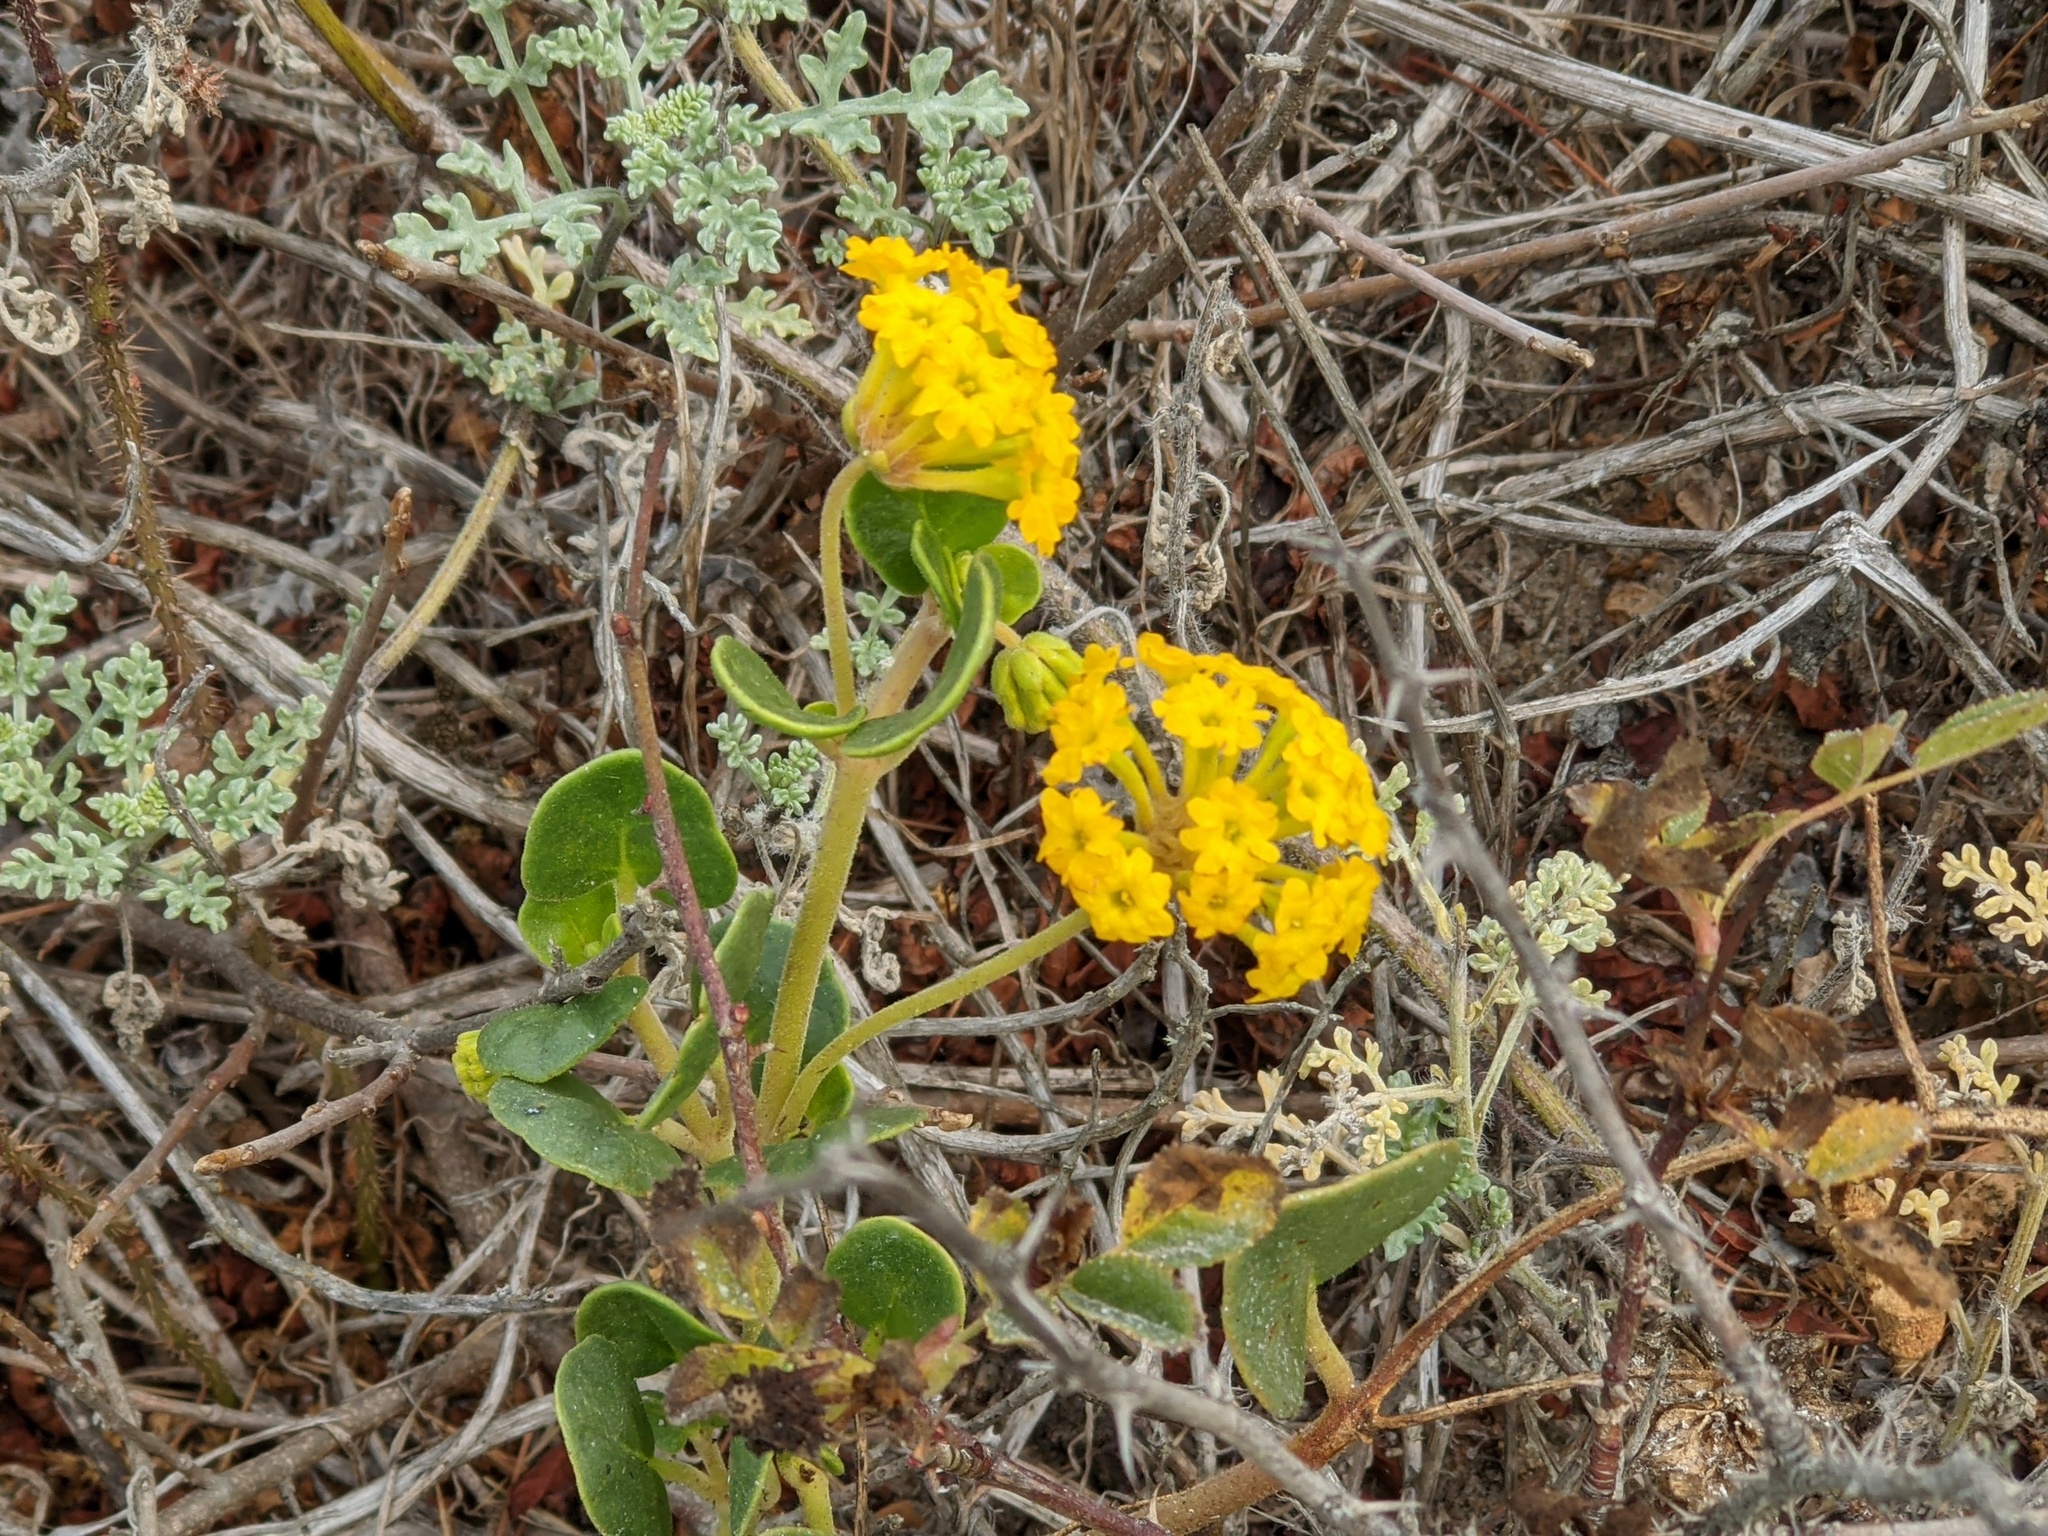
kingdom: Plantae
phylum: Tracheophyta
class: Magnoliopsida
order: Caryophyllales
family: Nyctaginaceae
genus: Abronia
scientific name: Abronia latifolia
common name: Yellow sand-verbena
